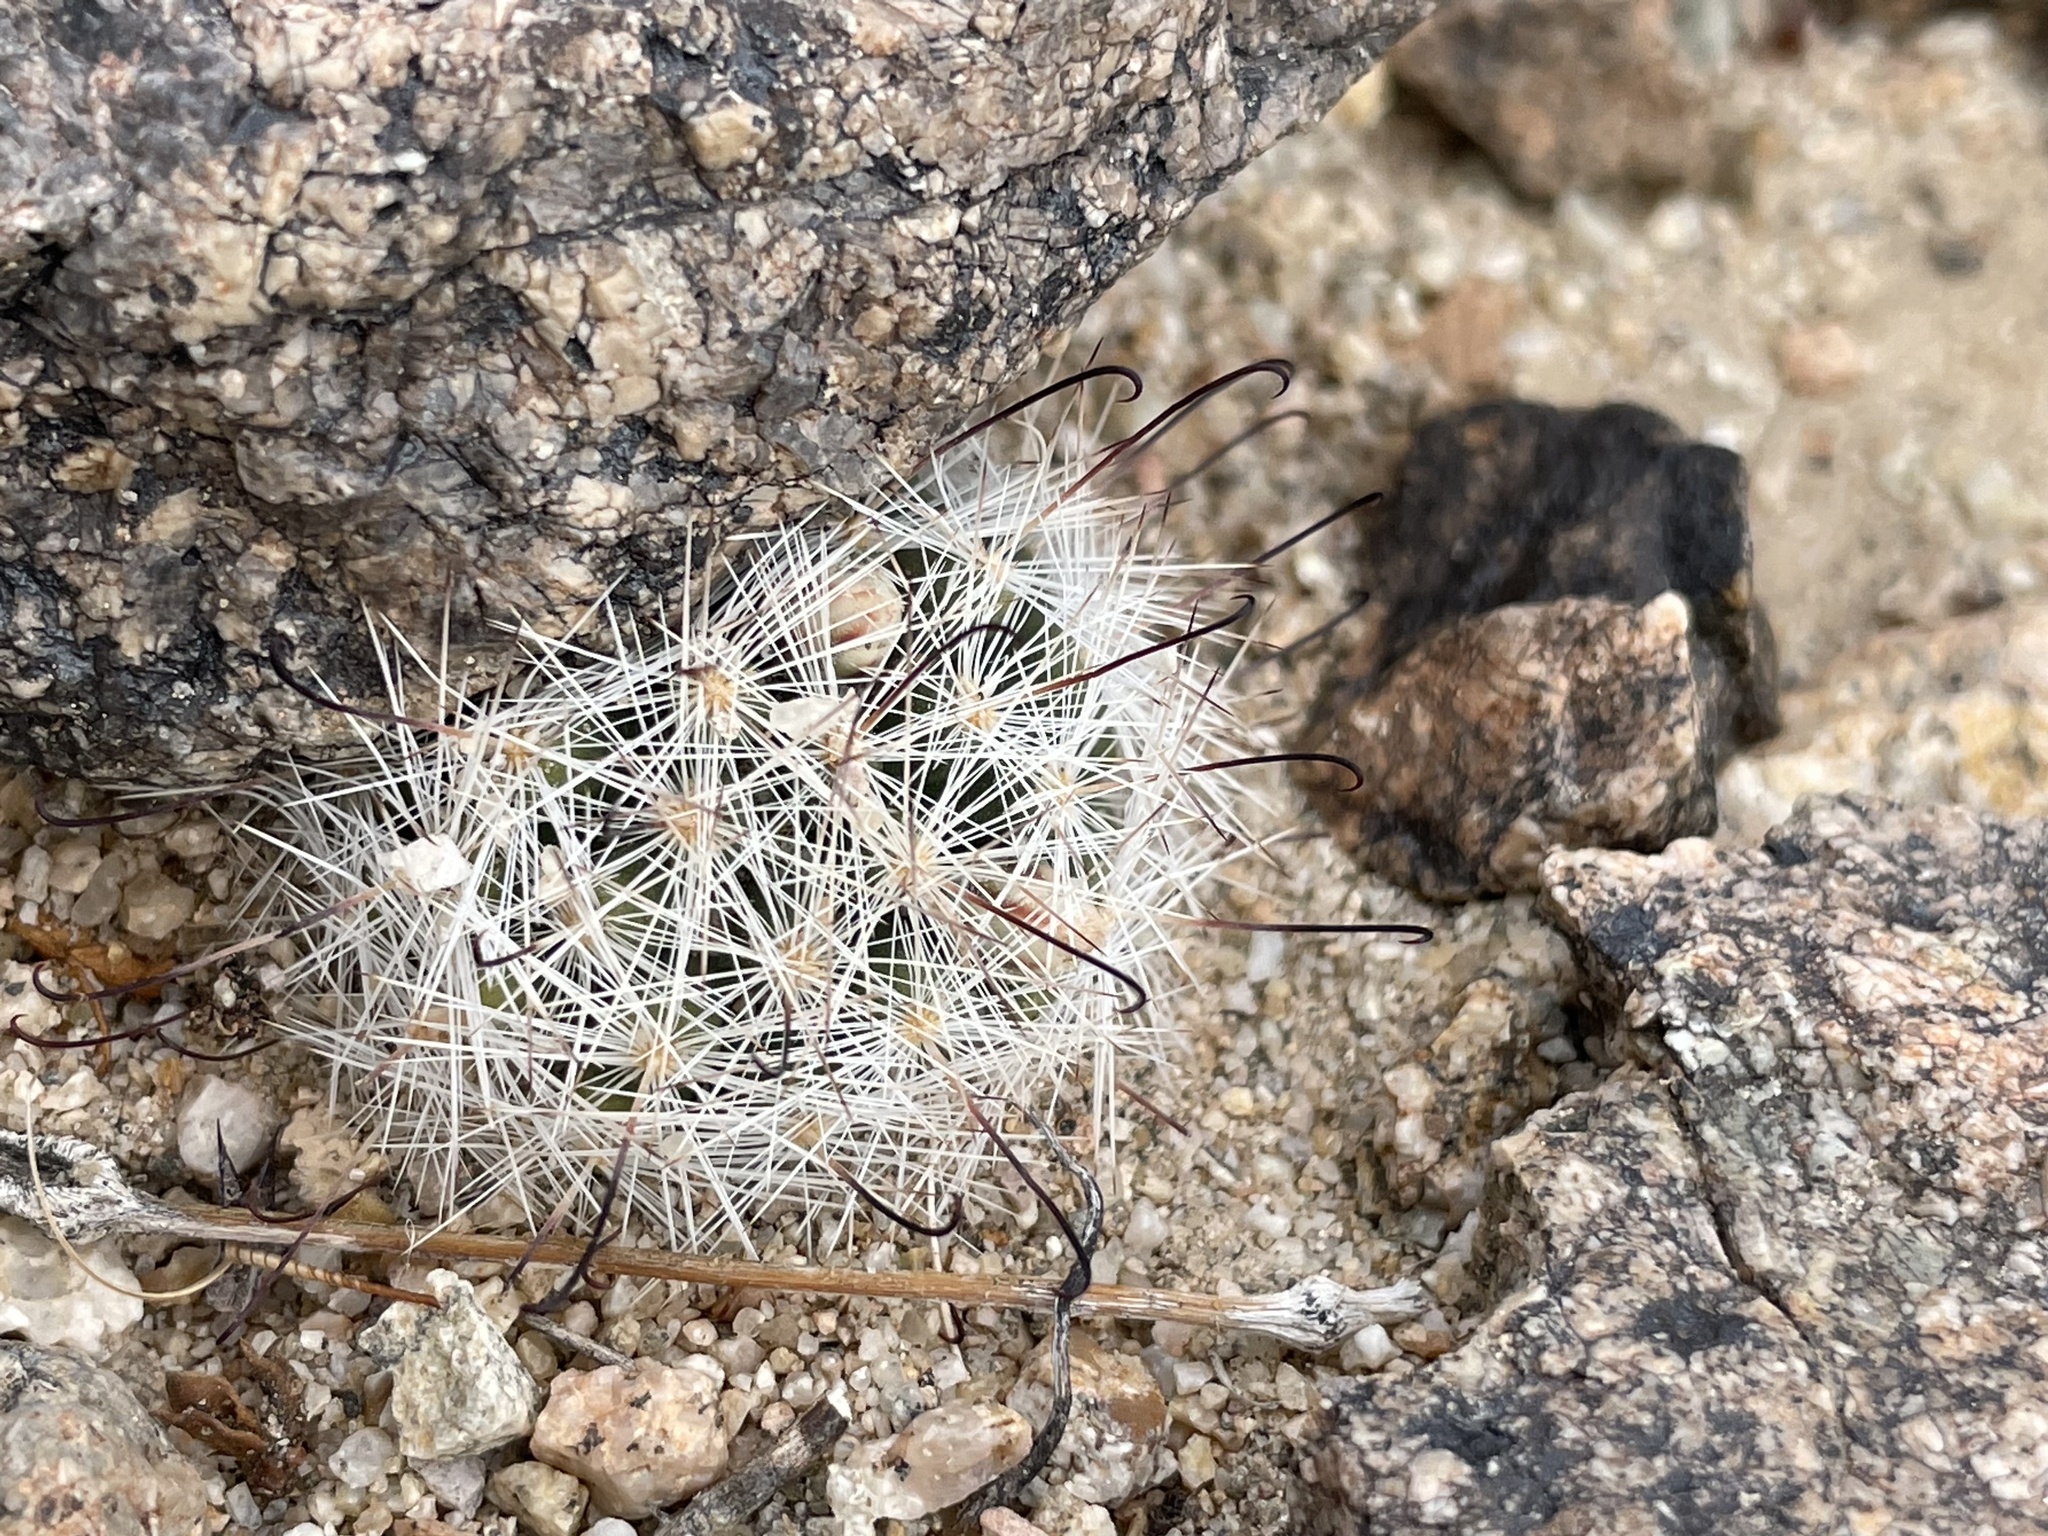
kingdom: Plantae
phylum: Tracheophyta
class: Magnoliopsida
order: Caryophyllales
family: Cactaceae
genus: Cochemiea
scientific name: Cochemiea tetrancistra
